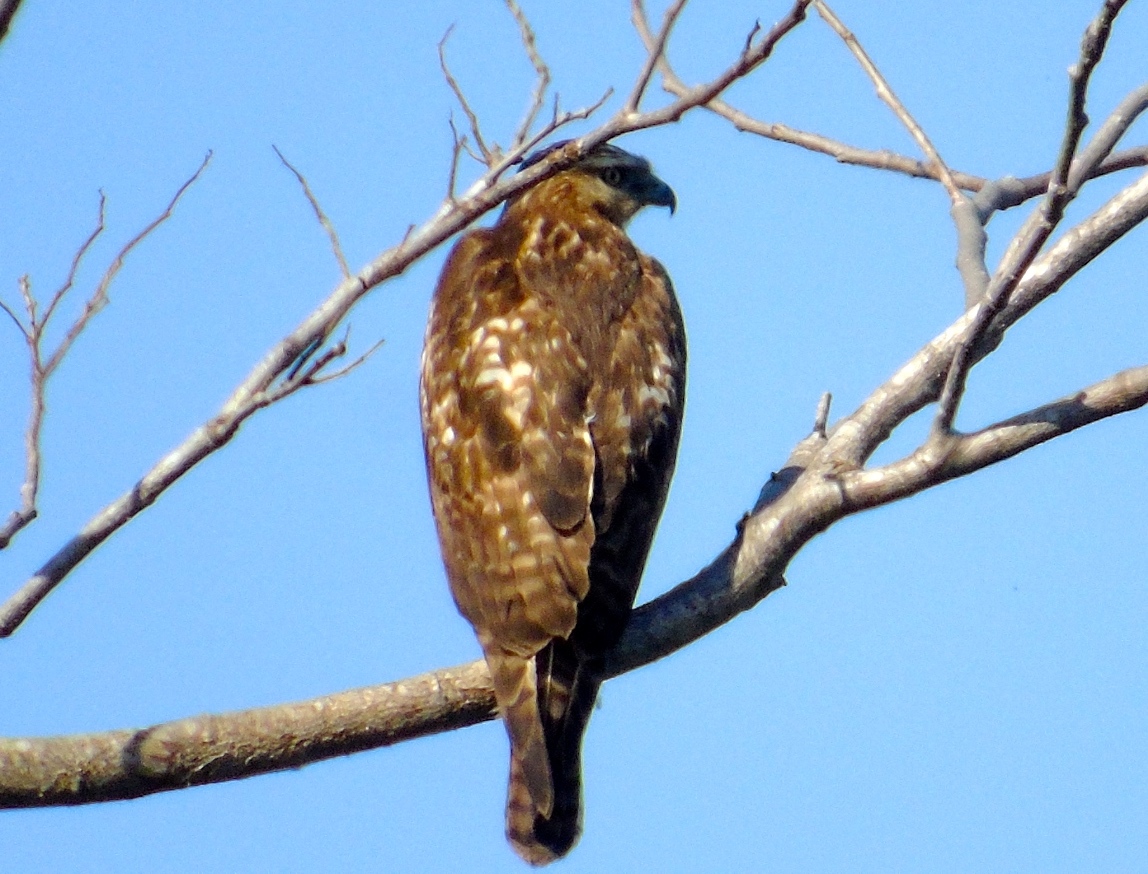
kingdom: Animalia
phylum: Chordata
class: Aves
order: Accipitriformes
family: Accipitridae
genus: Buteo
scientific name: Buteo nitidus
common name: Grey-lined hawk
